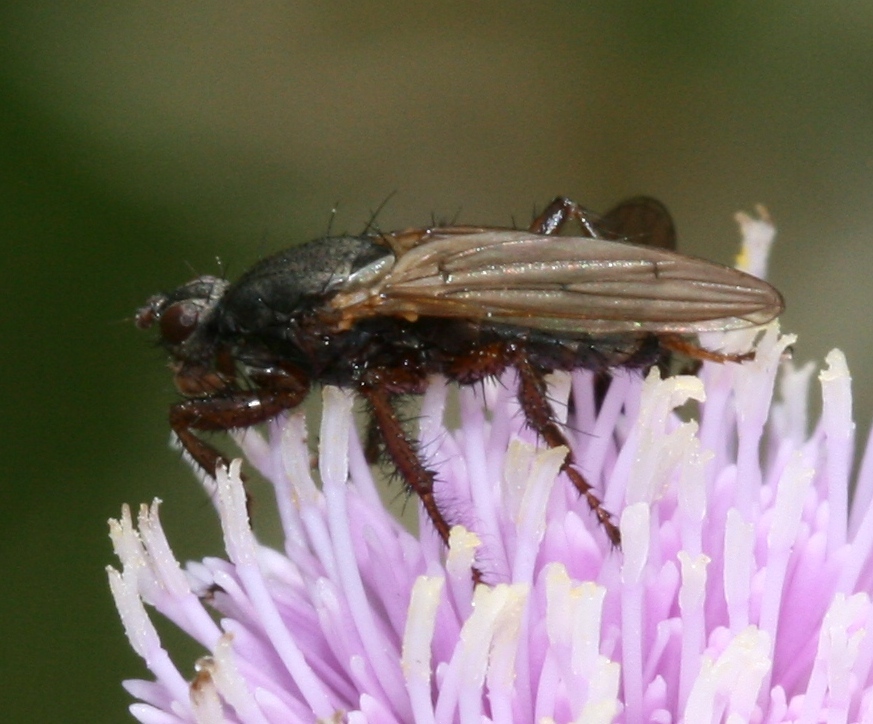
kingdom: Animalia
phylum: Arthropoda
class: Insecta
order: Diptera
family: Coelopidae
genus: Coelopa
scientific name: Coelopa frigida
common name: Kelp fly
